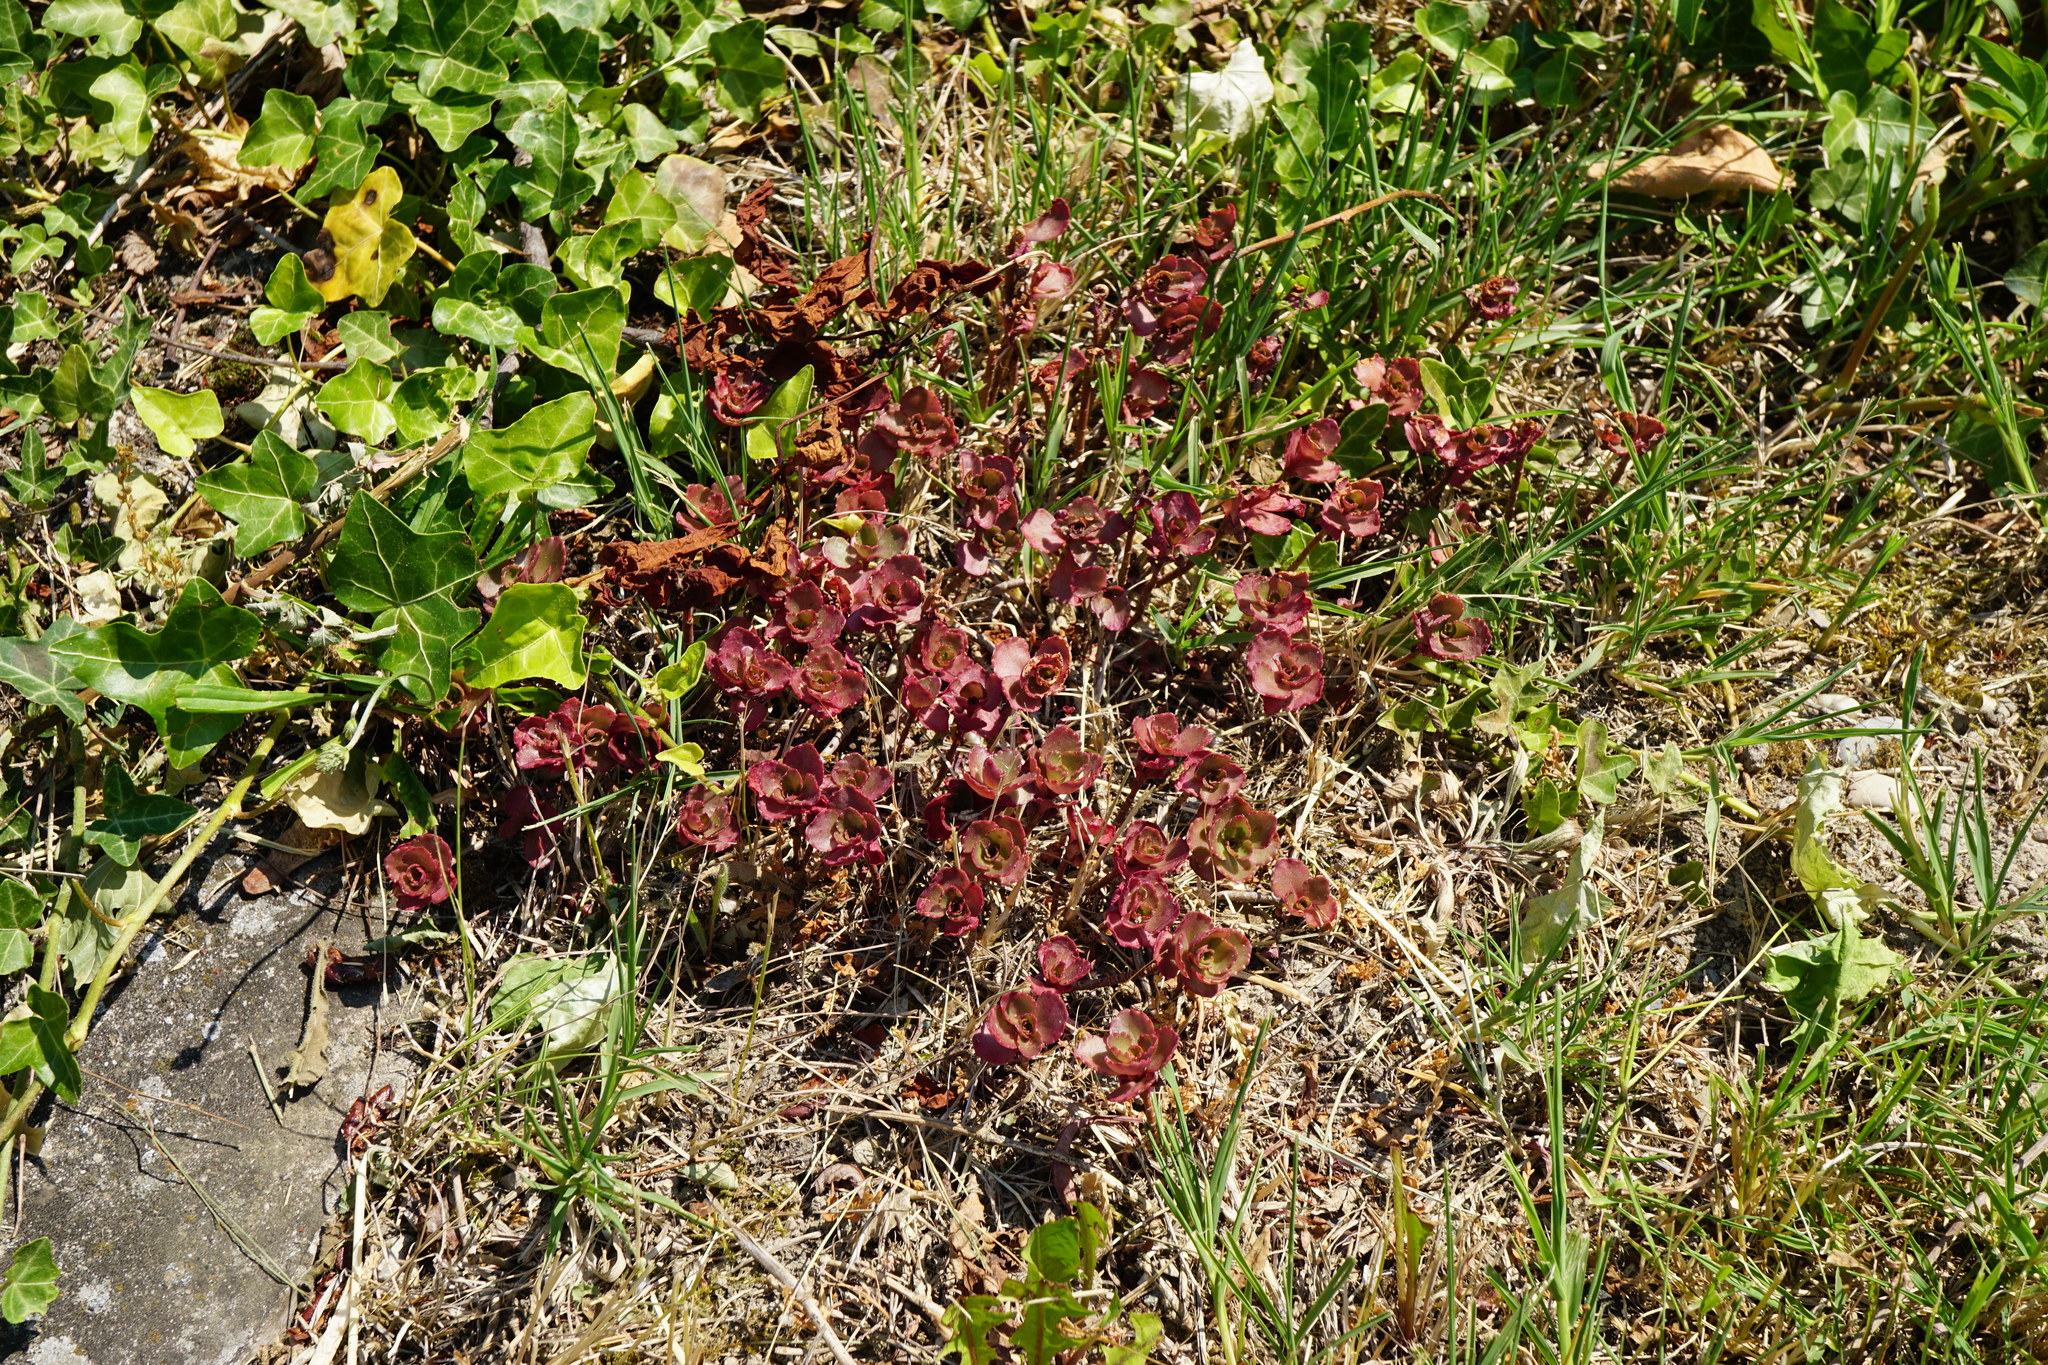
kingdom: Plantae
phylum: Tracheophyta
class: Magnoliopsida
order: Saxifragales
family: Crassulaceae
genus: Phedimus
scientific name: Phedimus spurius
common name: Caucasian stonecrop
